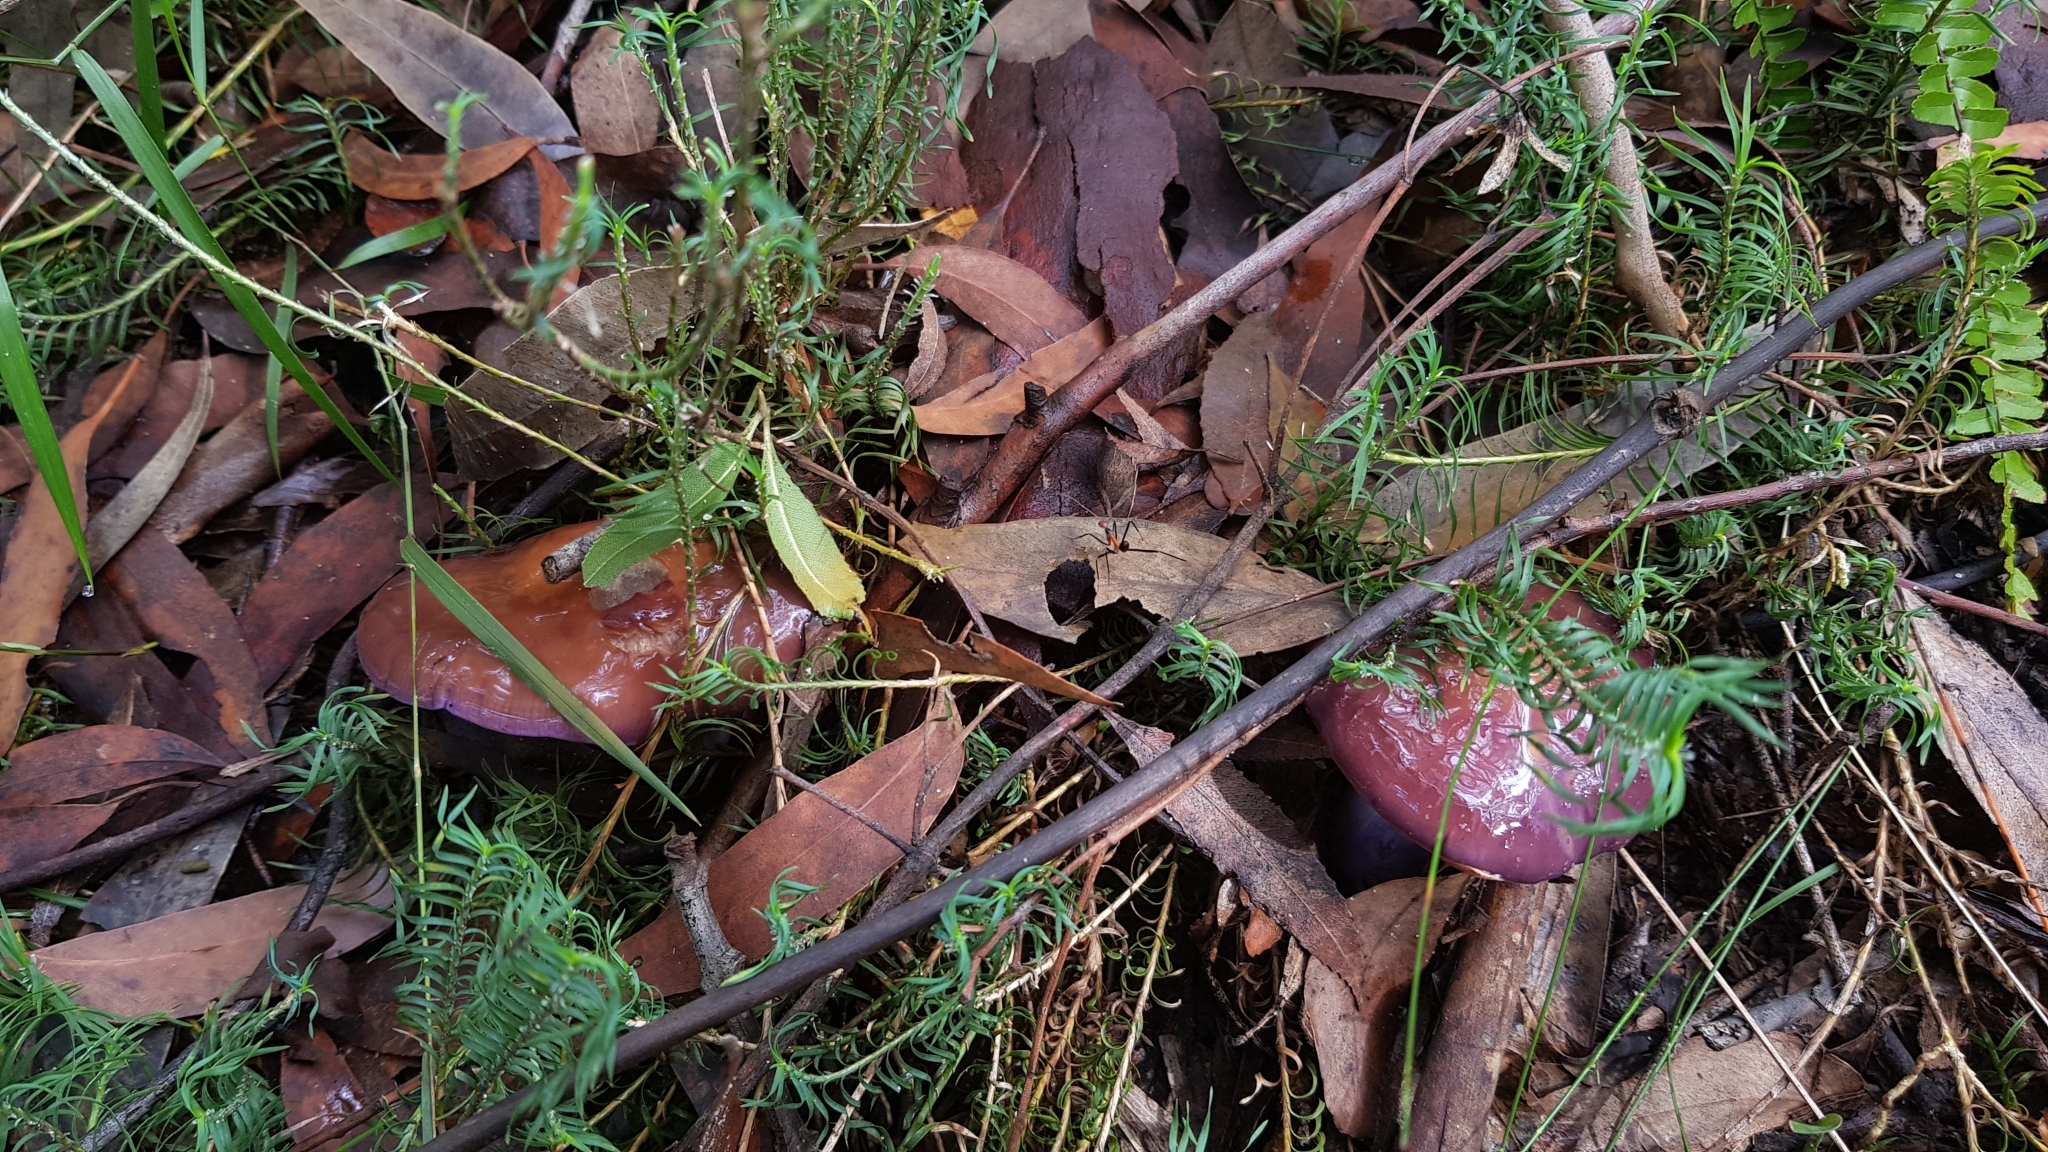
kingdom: Fungi
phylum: Basidiomycota
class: Agaricomycetes
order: Agaricales
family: Cortinariaceae
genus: Cortinarius
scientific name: Cortinarius archeri
